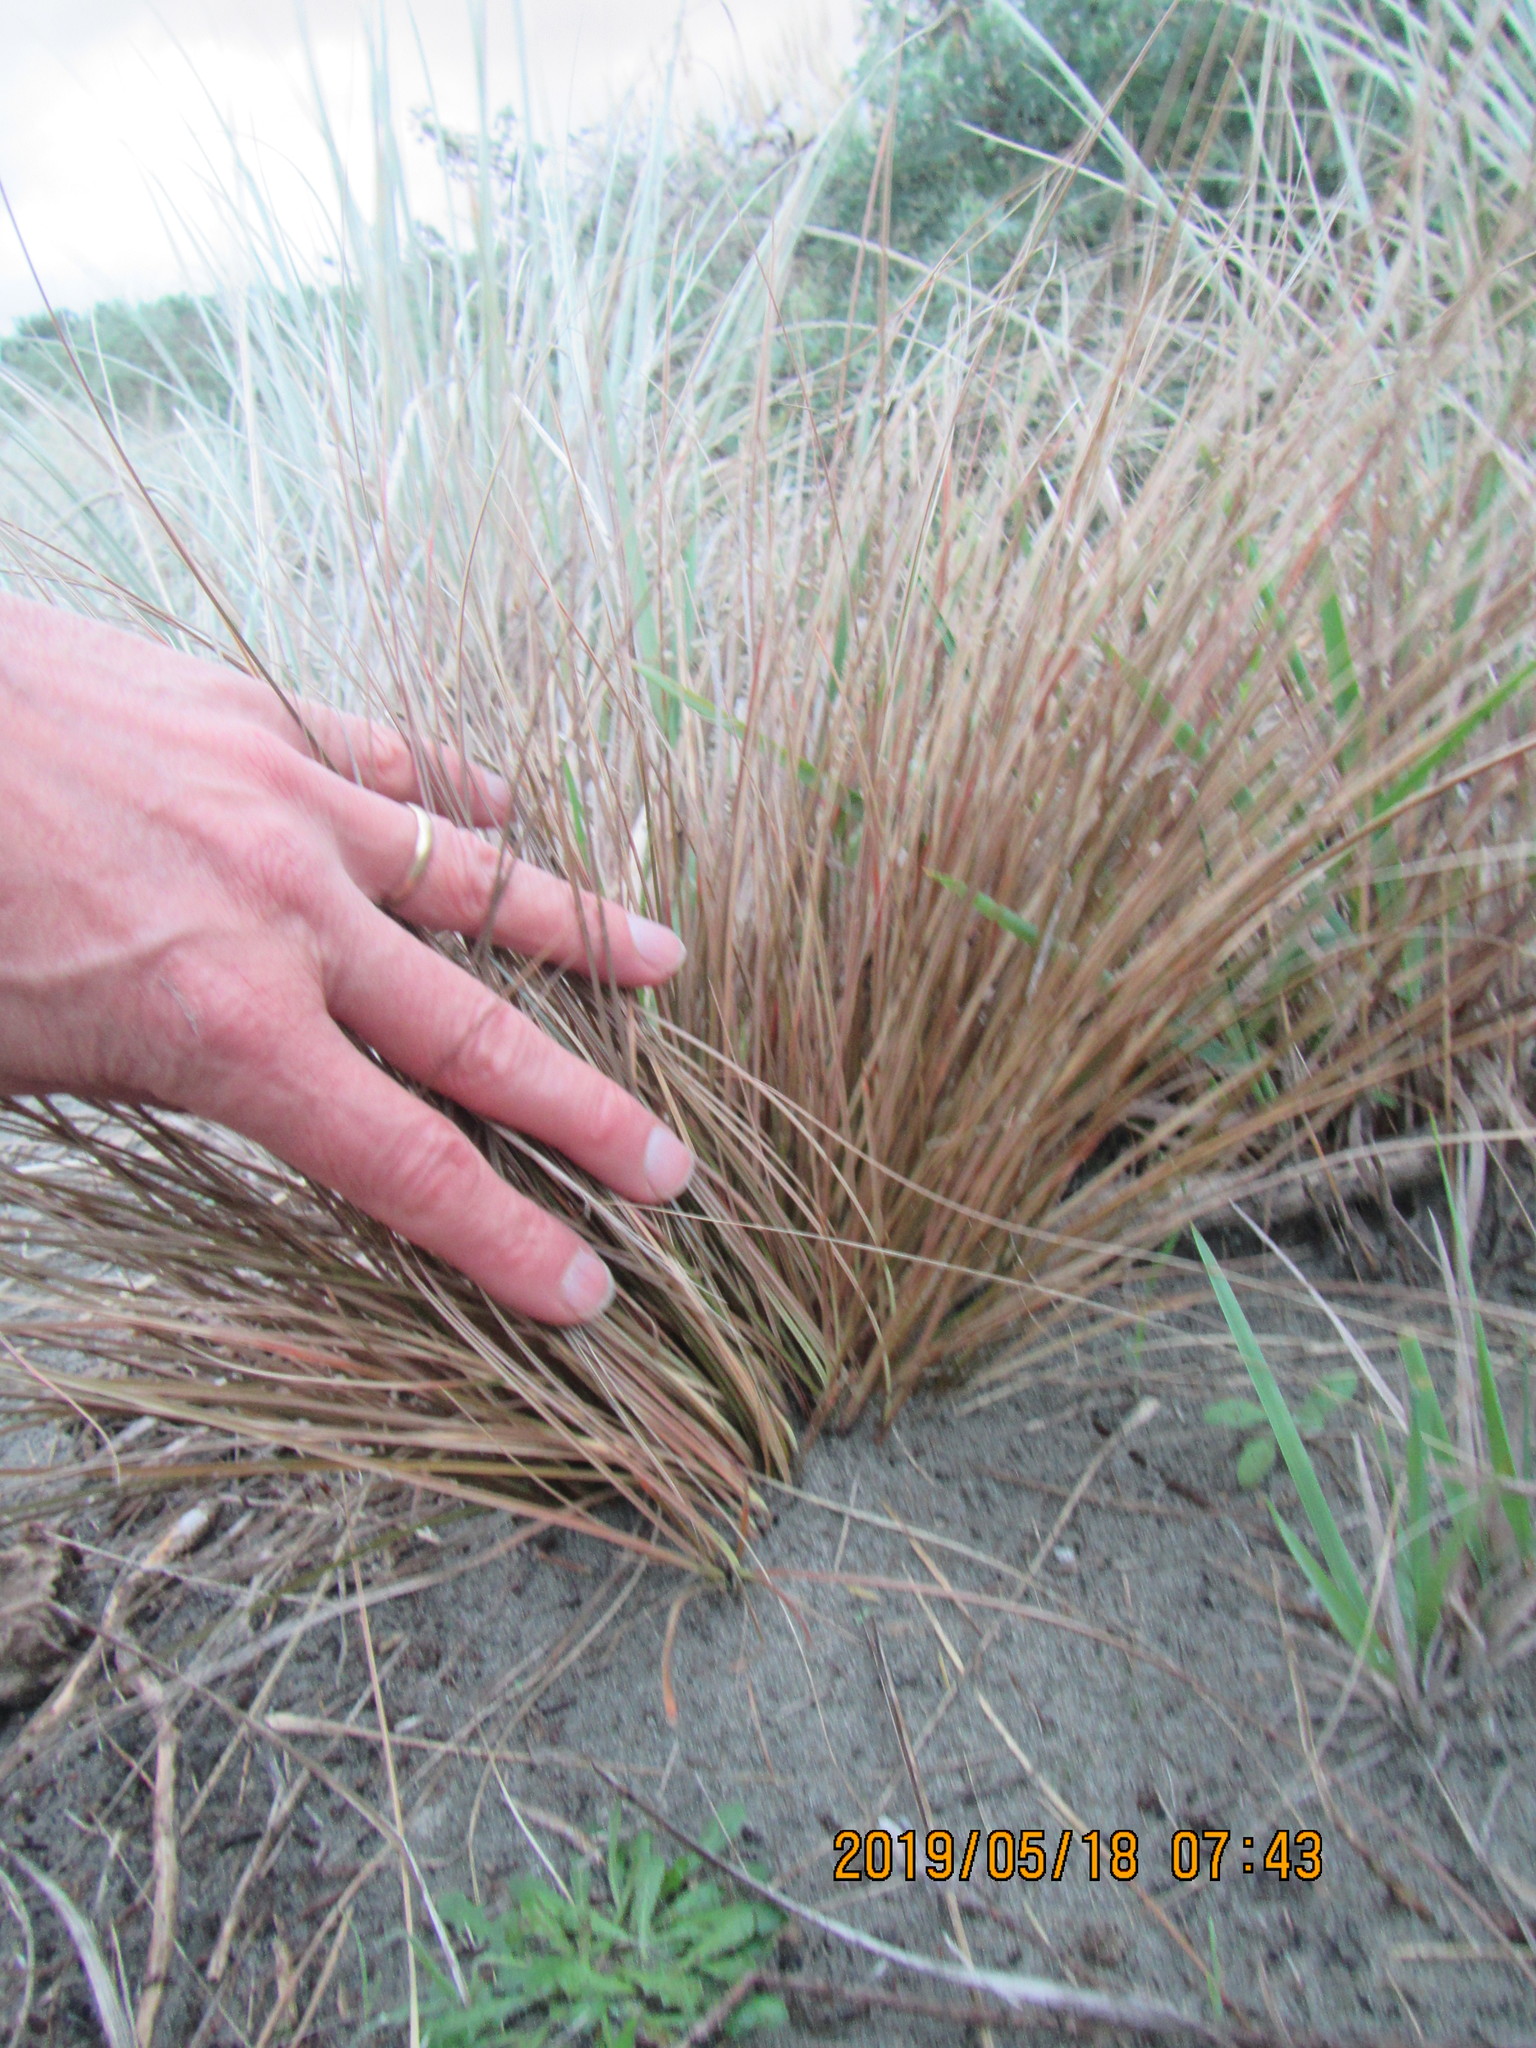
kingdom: Plantae
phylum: Tracheophyta
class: Liliopsida
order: Poales
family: Cyperaceae
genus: Carex
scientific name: Carex testacea
